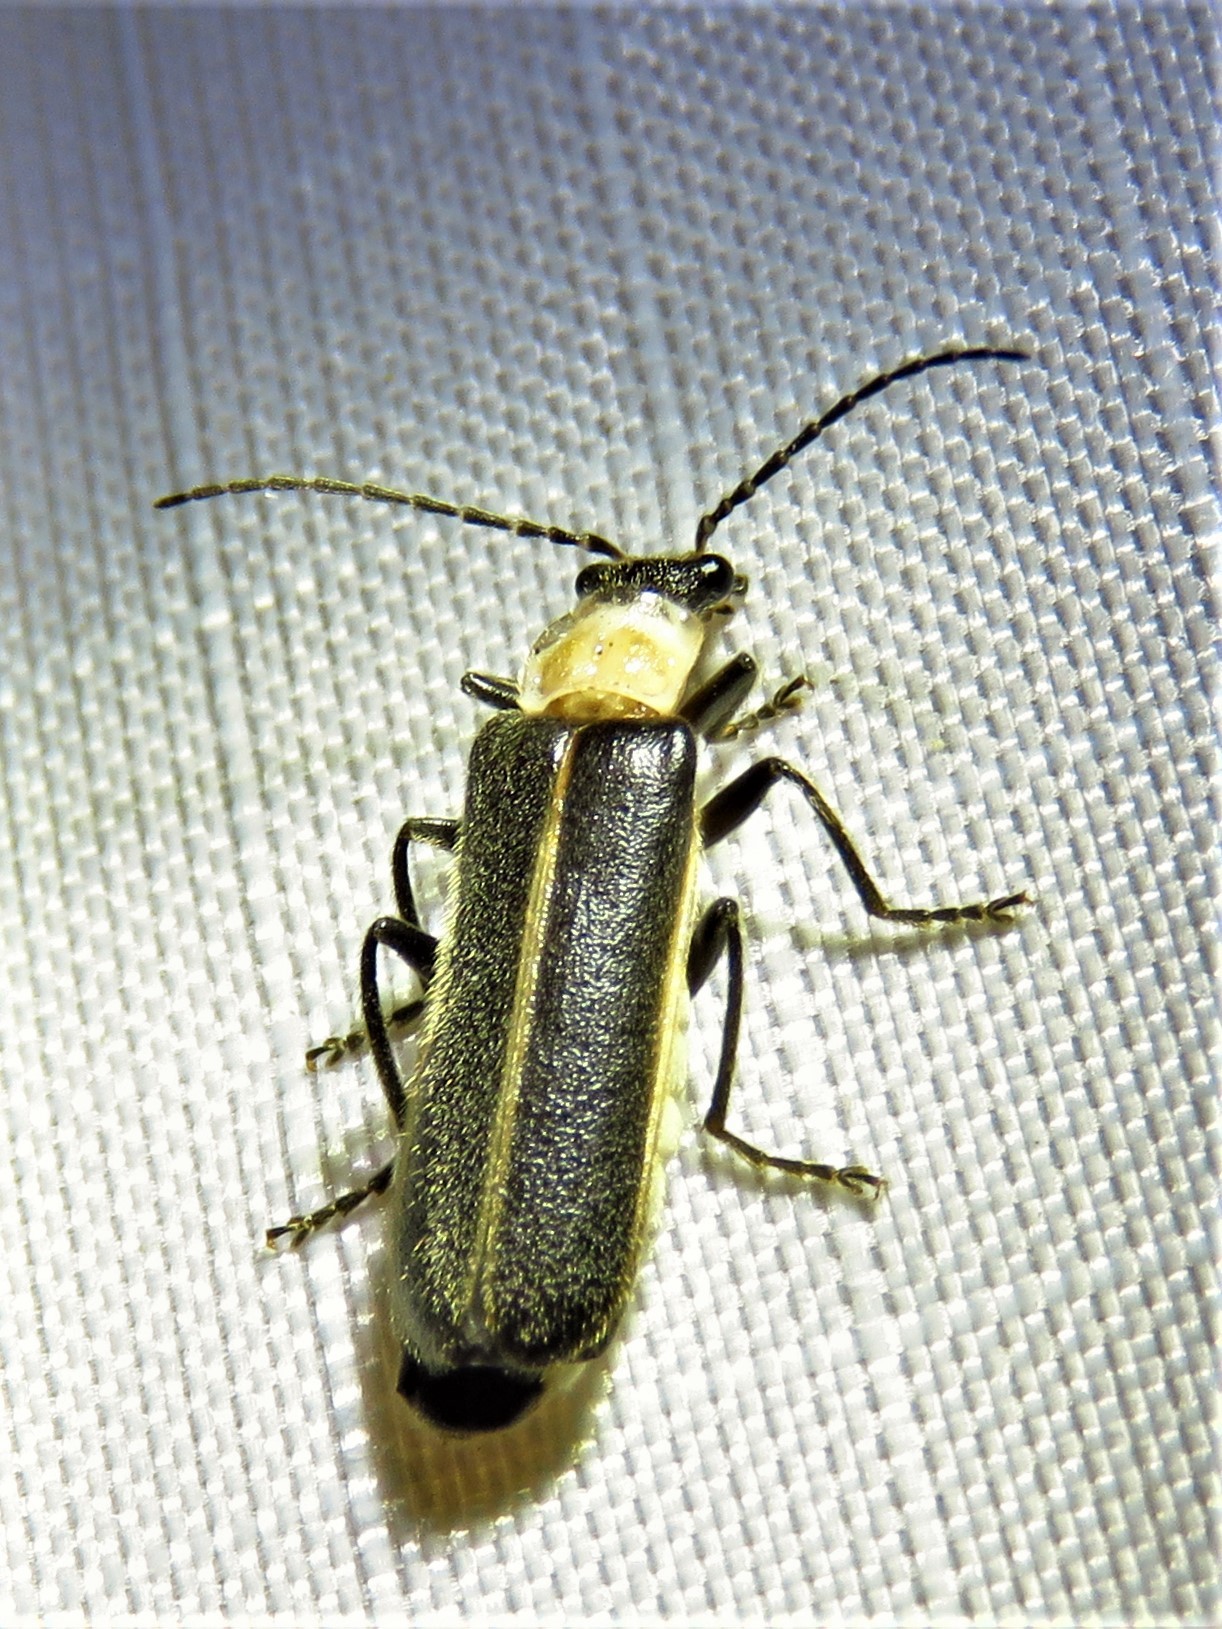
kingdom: Animalia
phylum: Arthropoda
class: Insecta
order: Coleoptera
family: Cantharidae
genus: Podabrus
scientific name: Podabrus flavicollis
